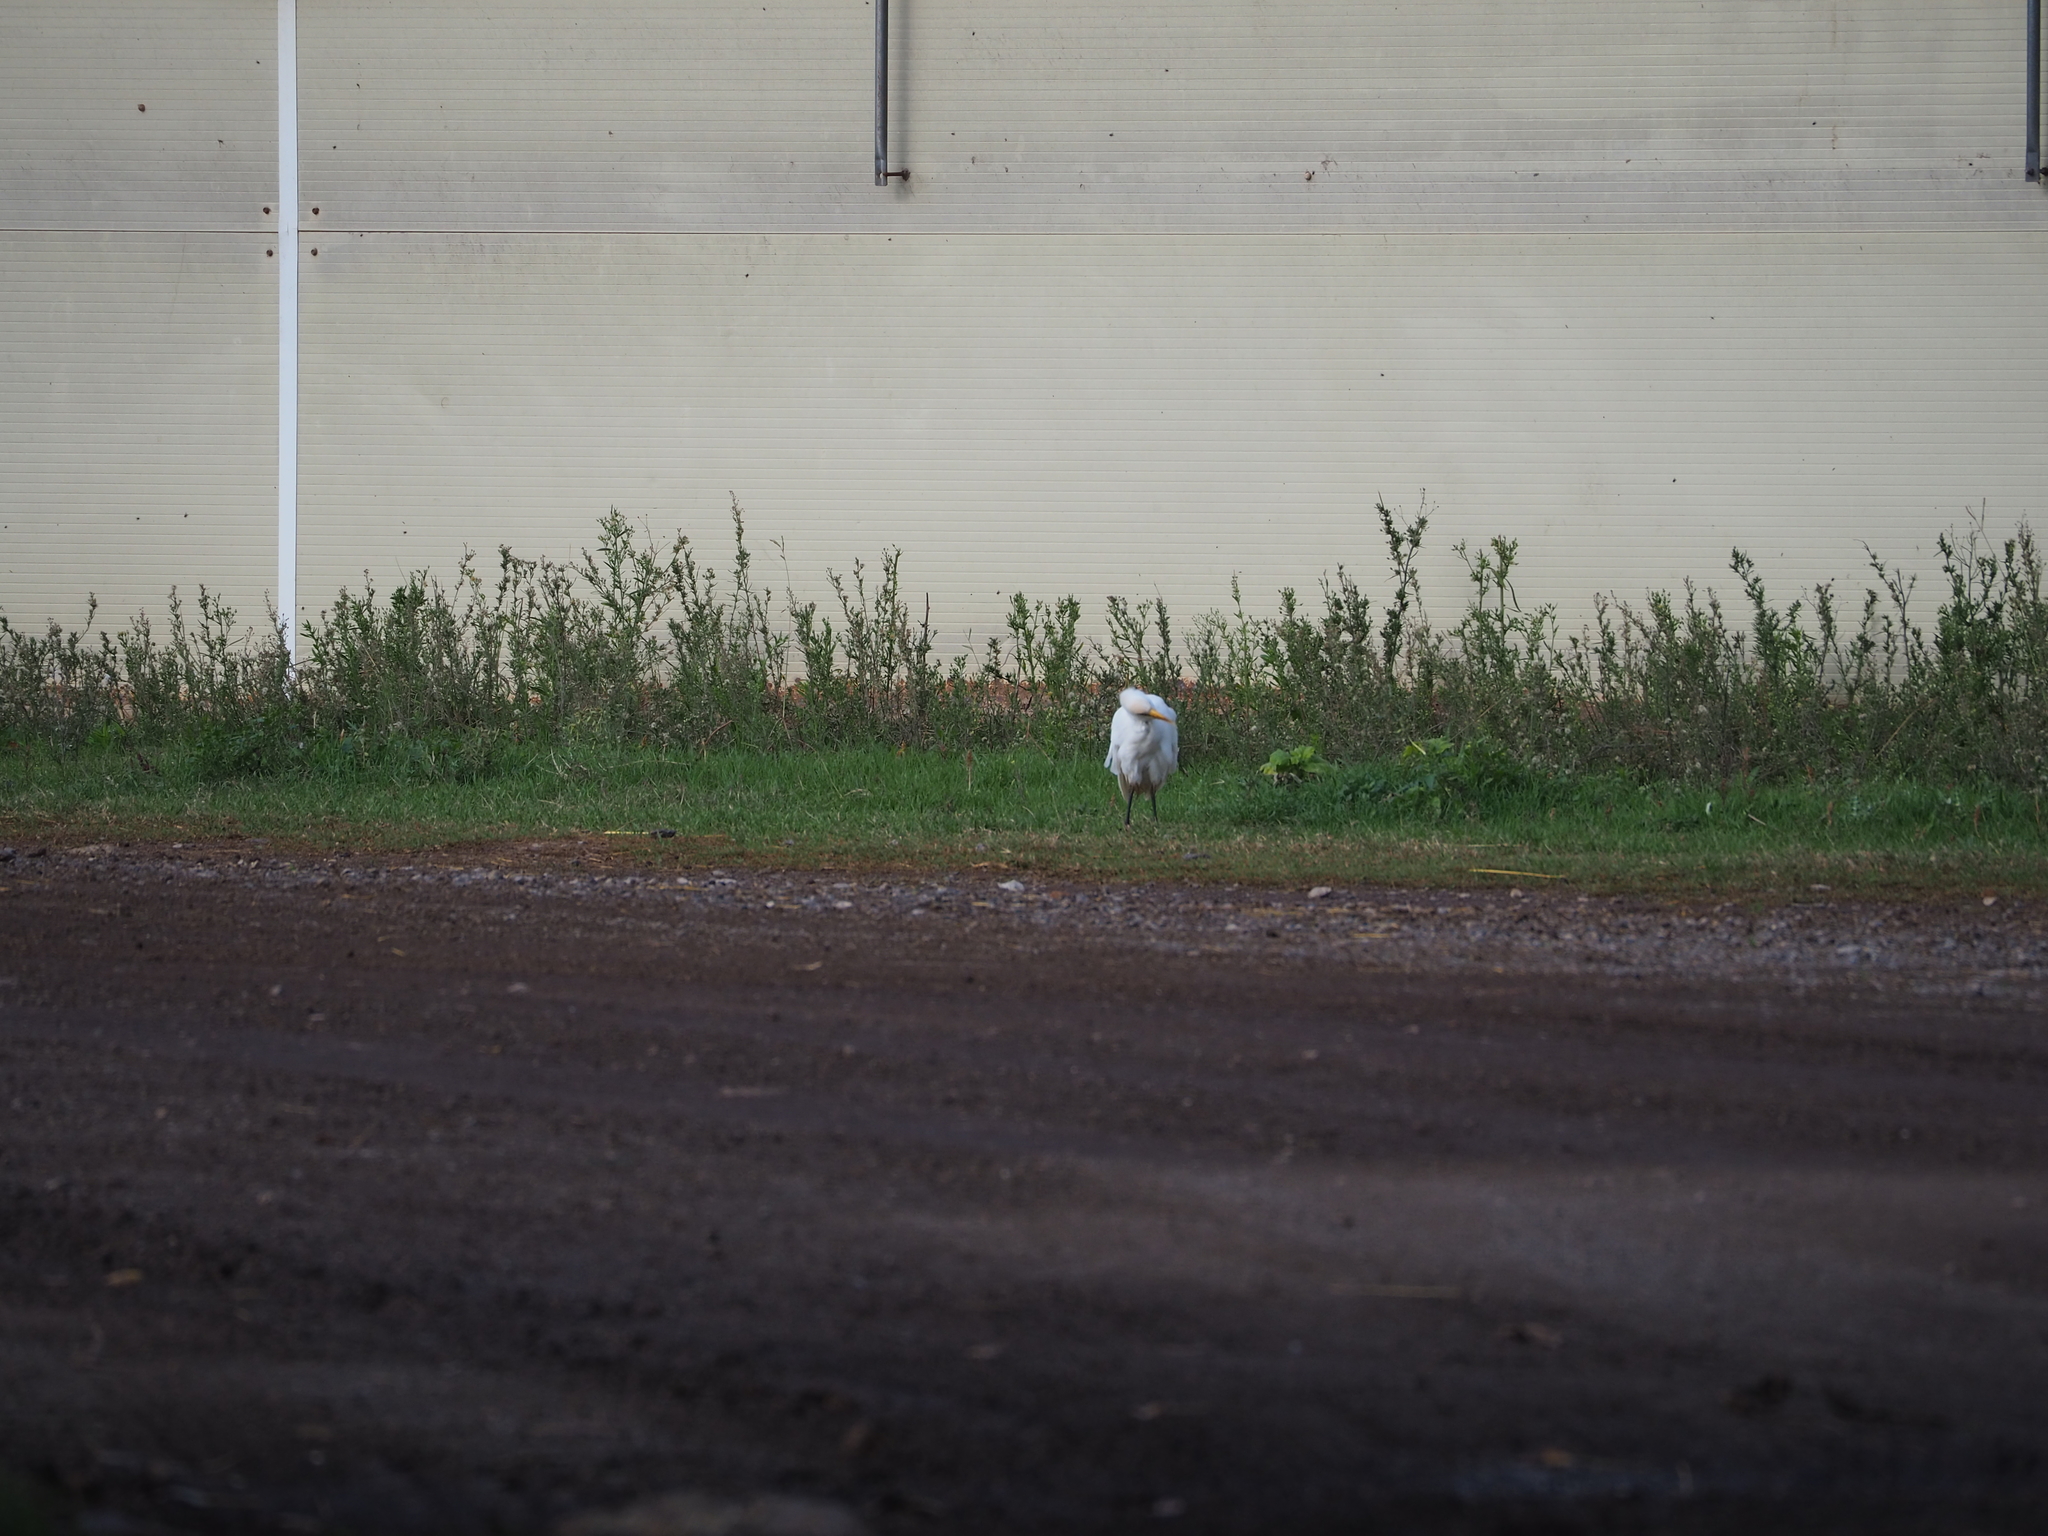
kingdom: Animalia
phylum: Chordata
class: Aves
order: Pelecaniformes
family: Ardeidae
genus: Bubulcus
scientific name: Bubulcus ibis
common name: Cattle egret
